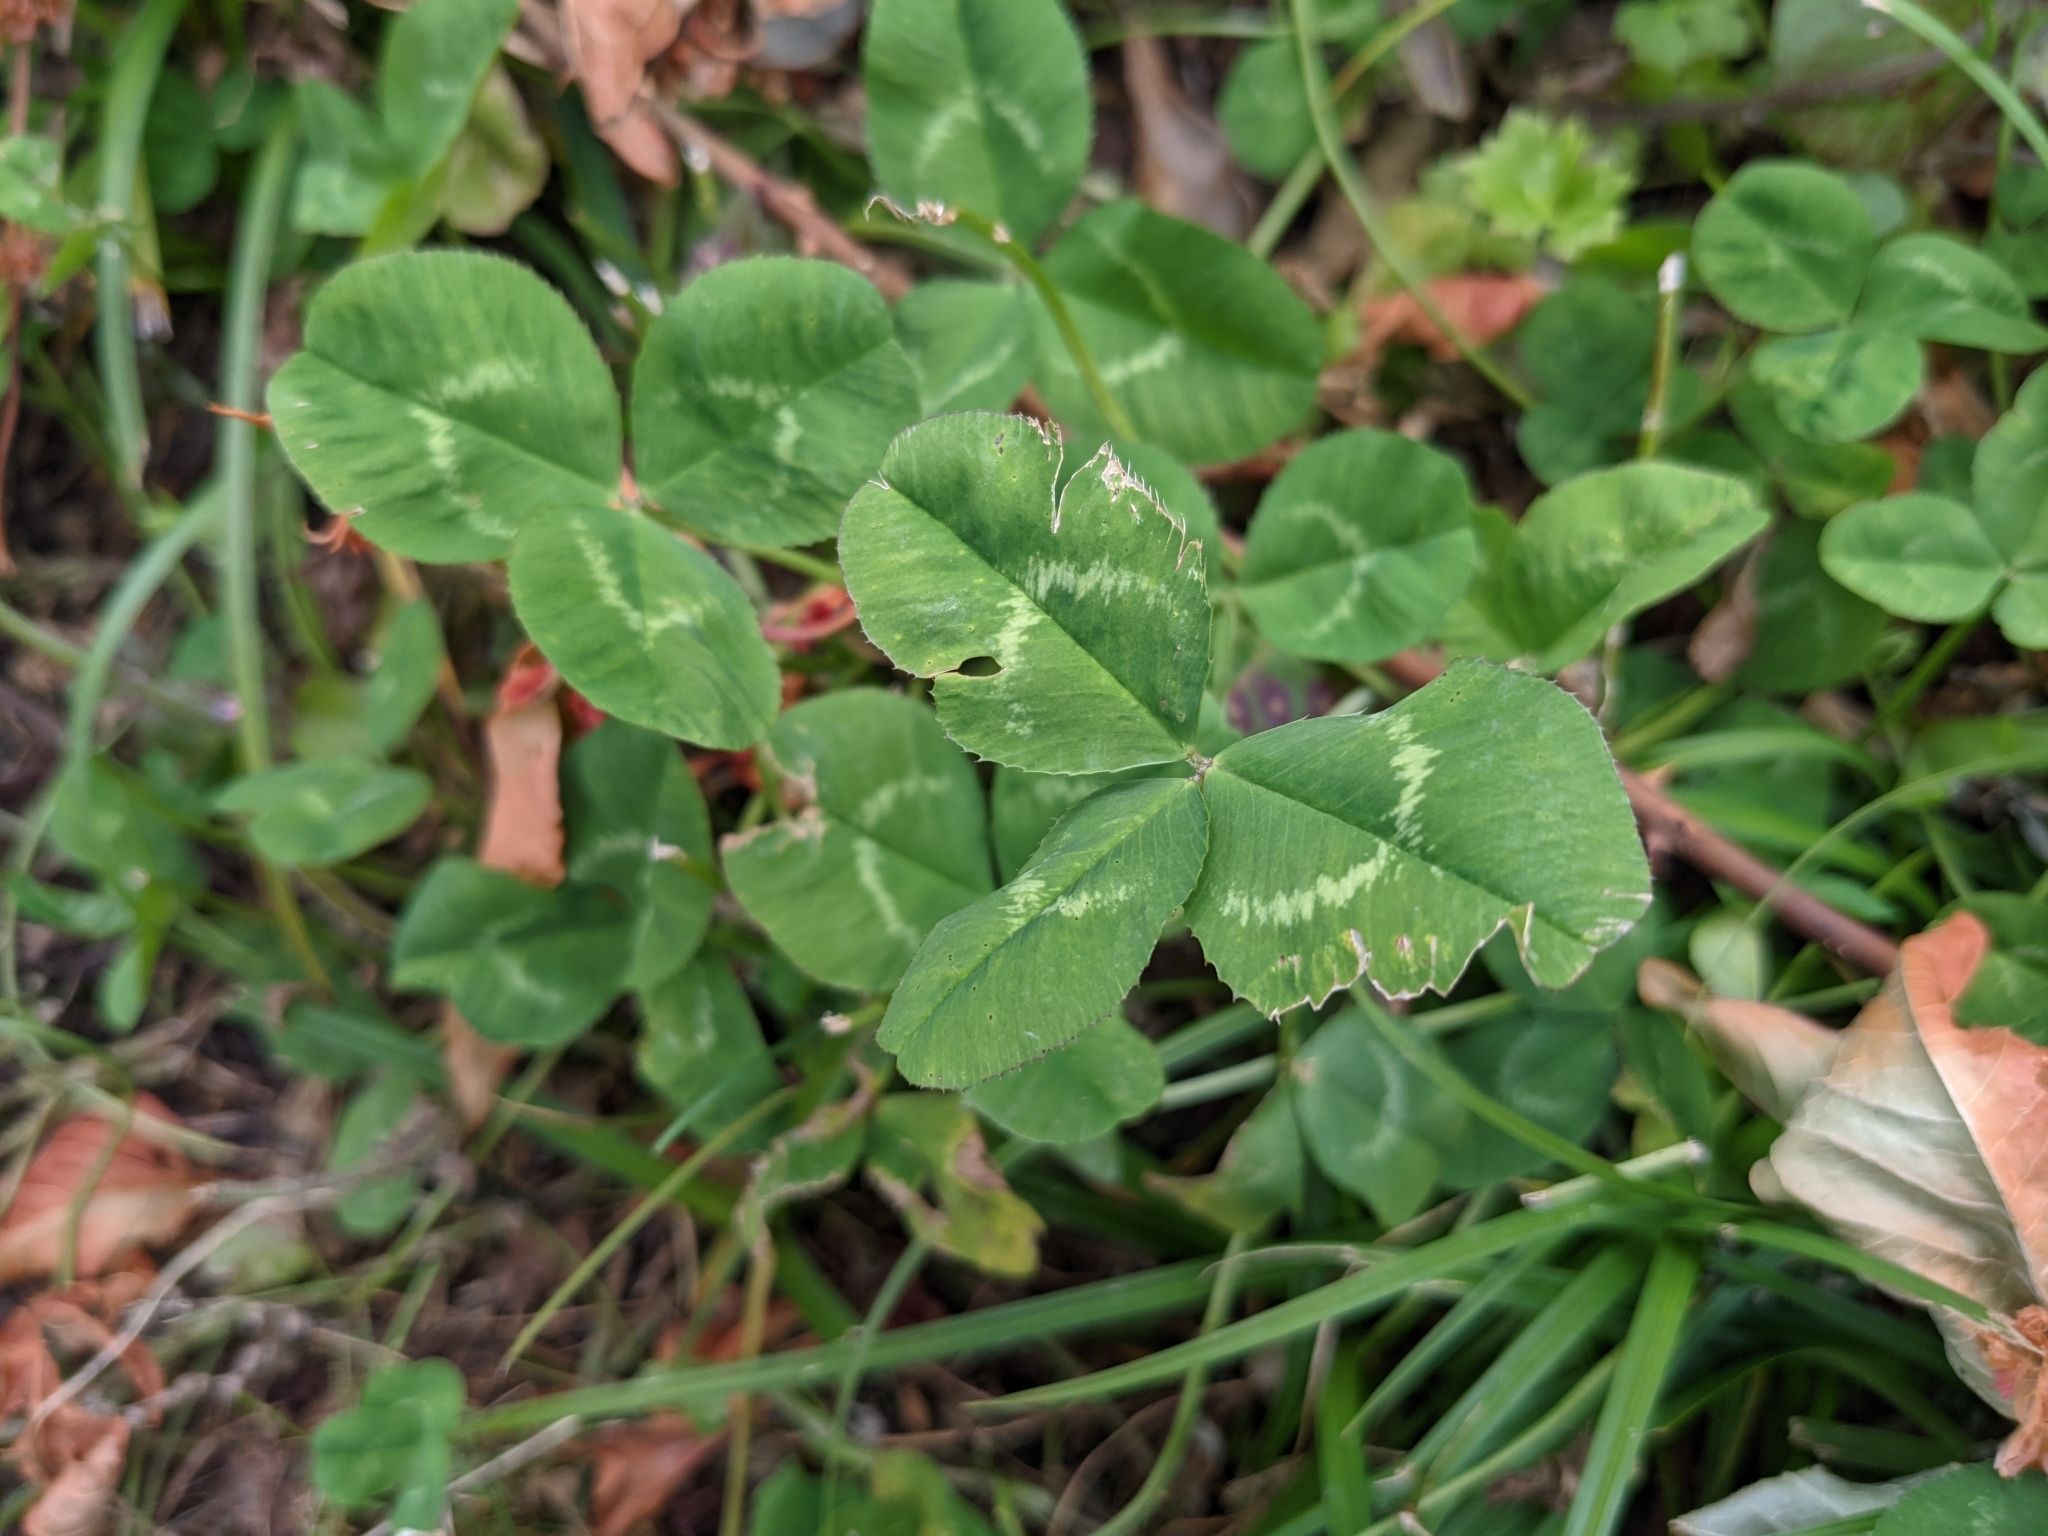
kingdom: Plantae
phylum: Tracheophyta
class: Magnoliopsida
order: Fabales
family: Fabaceae
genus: Trifolium
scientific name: Trifolium repens
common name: White clover
